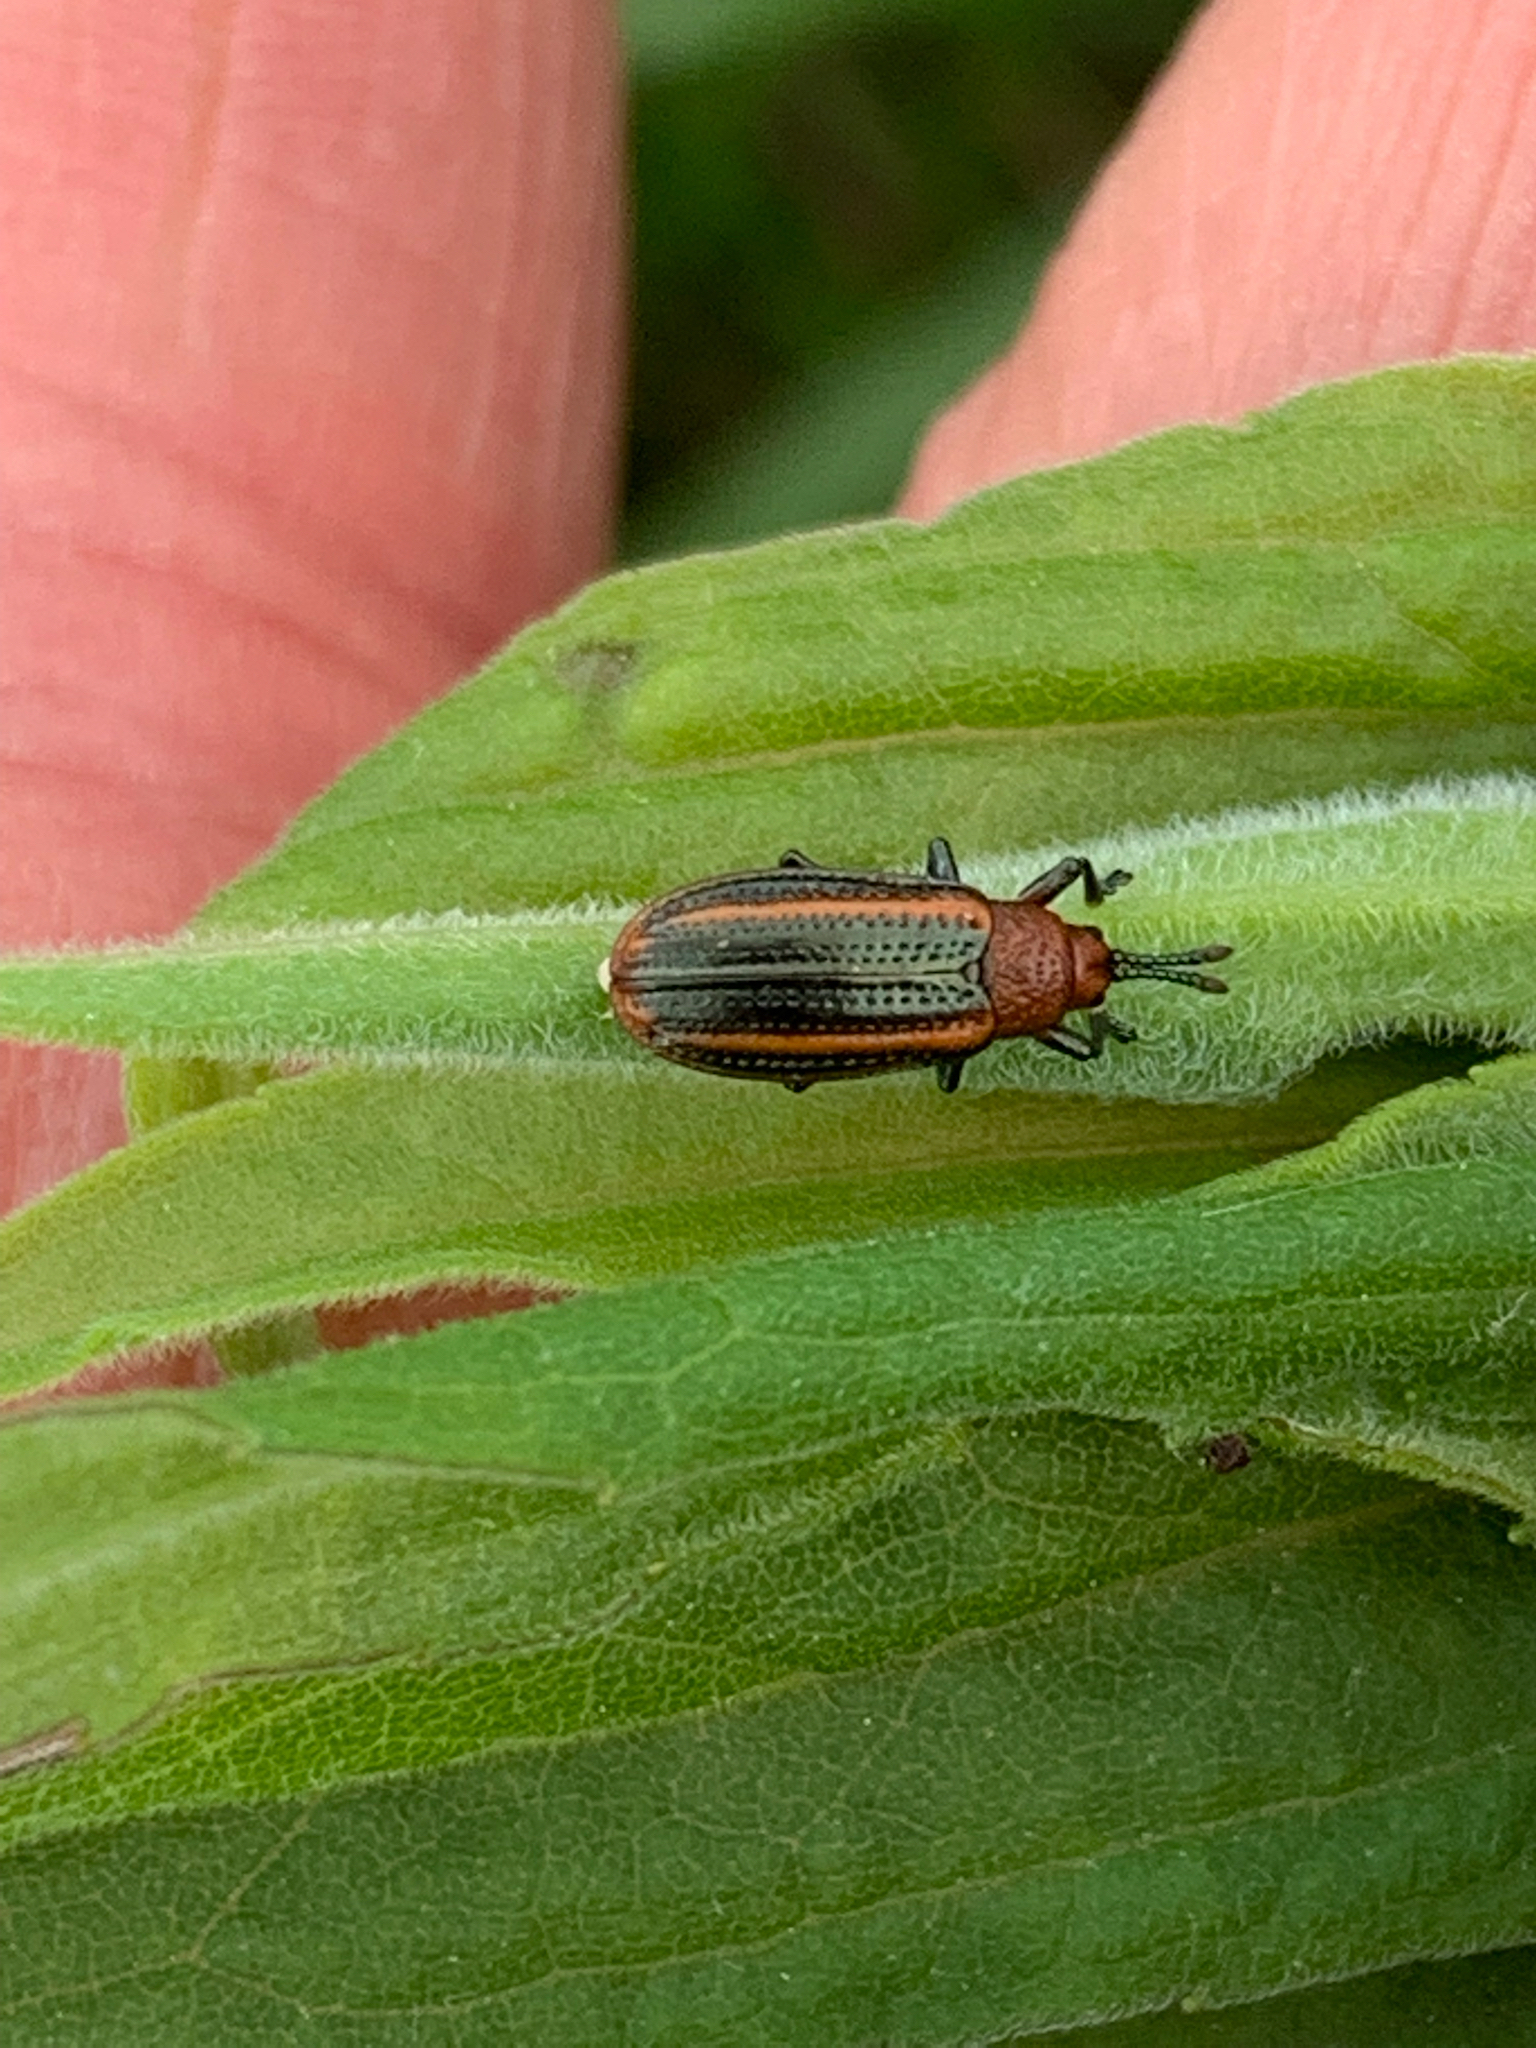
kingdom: Animalia
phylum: Arthropoda
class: Insecta
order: Coleoptera
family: Chrysomelidae
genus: Microrhopala
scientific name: Microrhopala vittata
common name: Goldenrod leaf miner beetle
